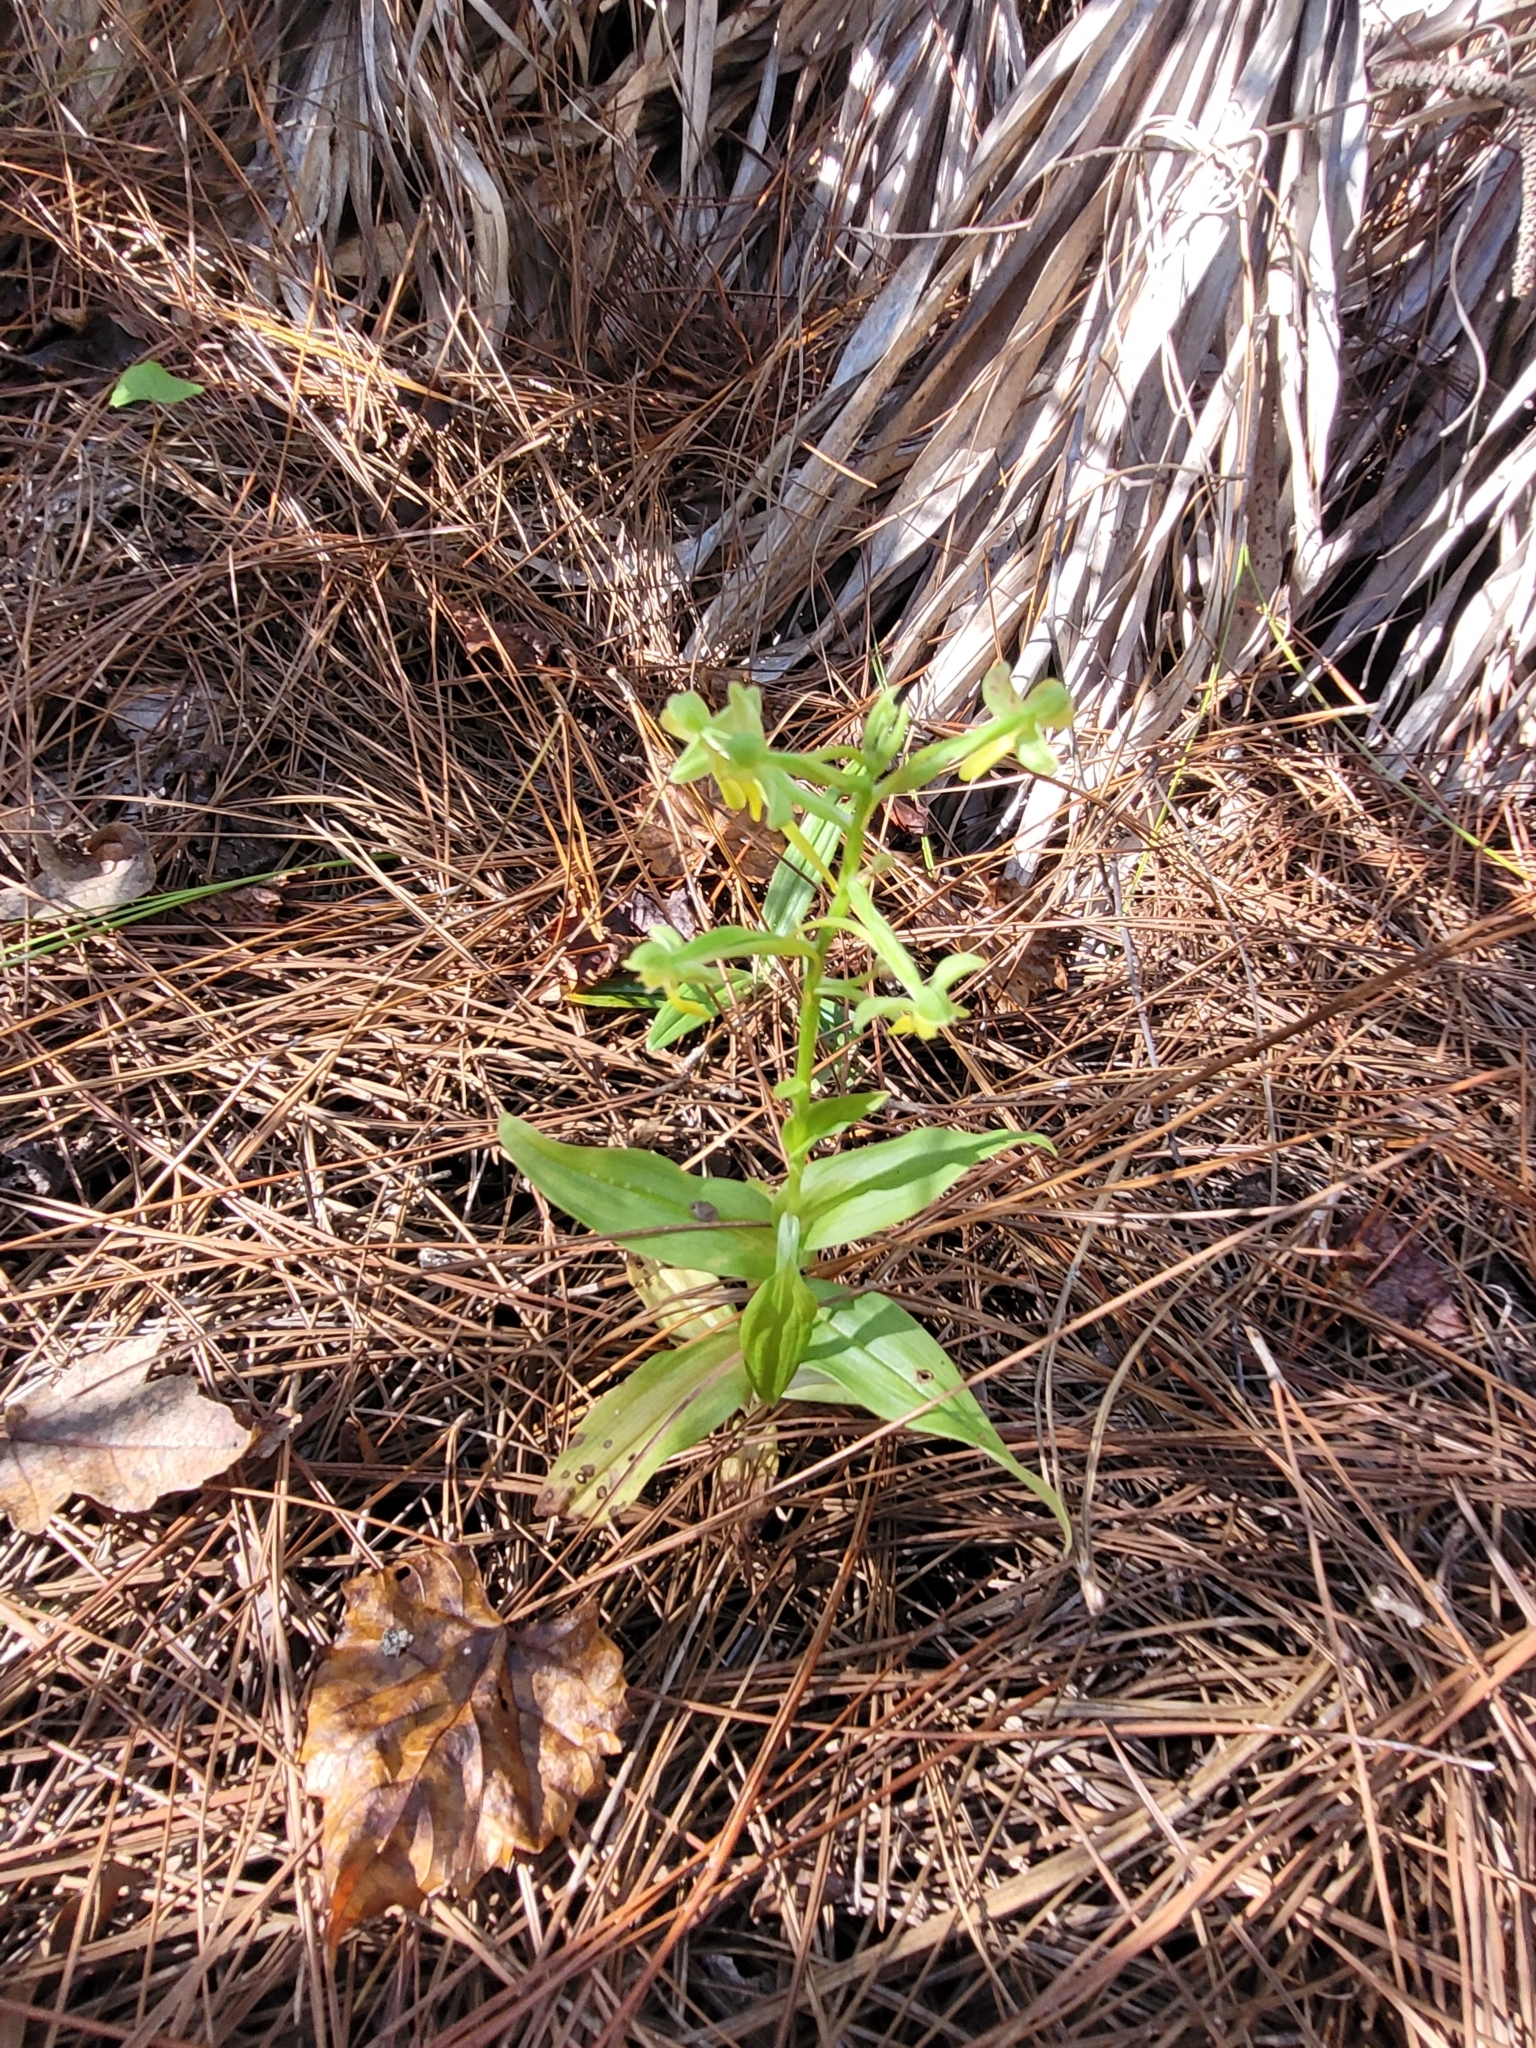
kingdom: Plantae
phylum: Tracheophyta
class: Liliopsida
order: Asparagales
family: Orchidaceae
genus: Habenaria
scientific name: Habenaria floribunda
